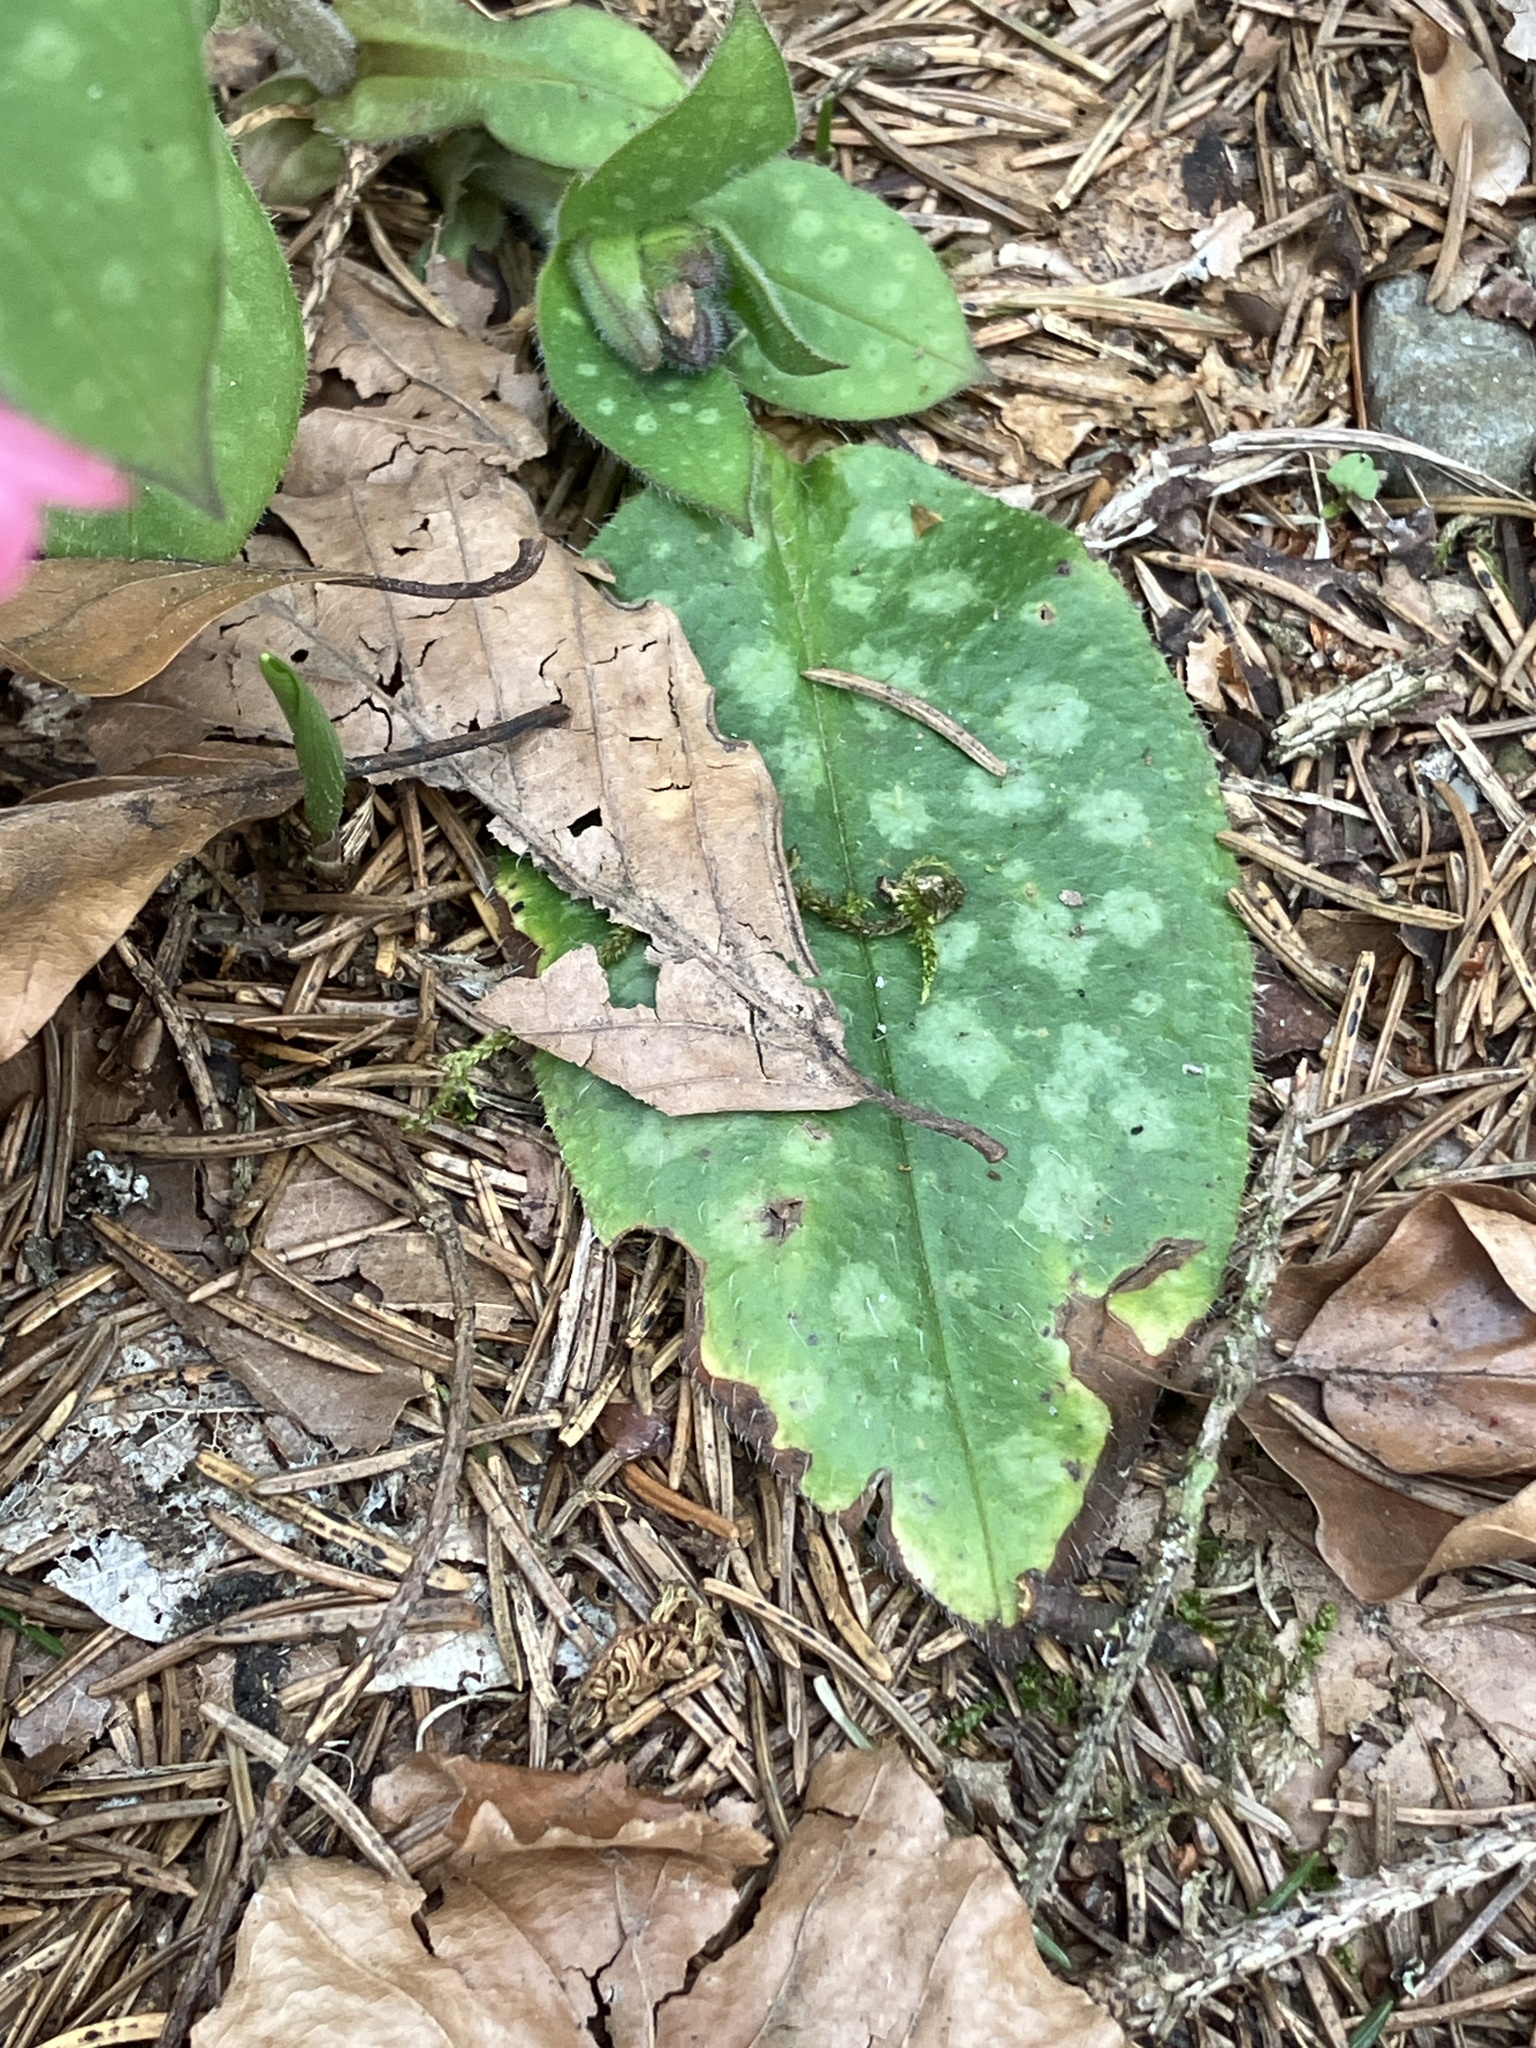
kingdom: Plantae
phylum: Tracheophyta
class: Magnoliopsida
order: Boraginales
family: Boraginaceae
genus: Pulmonaria
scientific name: Pulmonaria officinalis
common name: Lungwort
